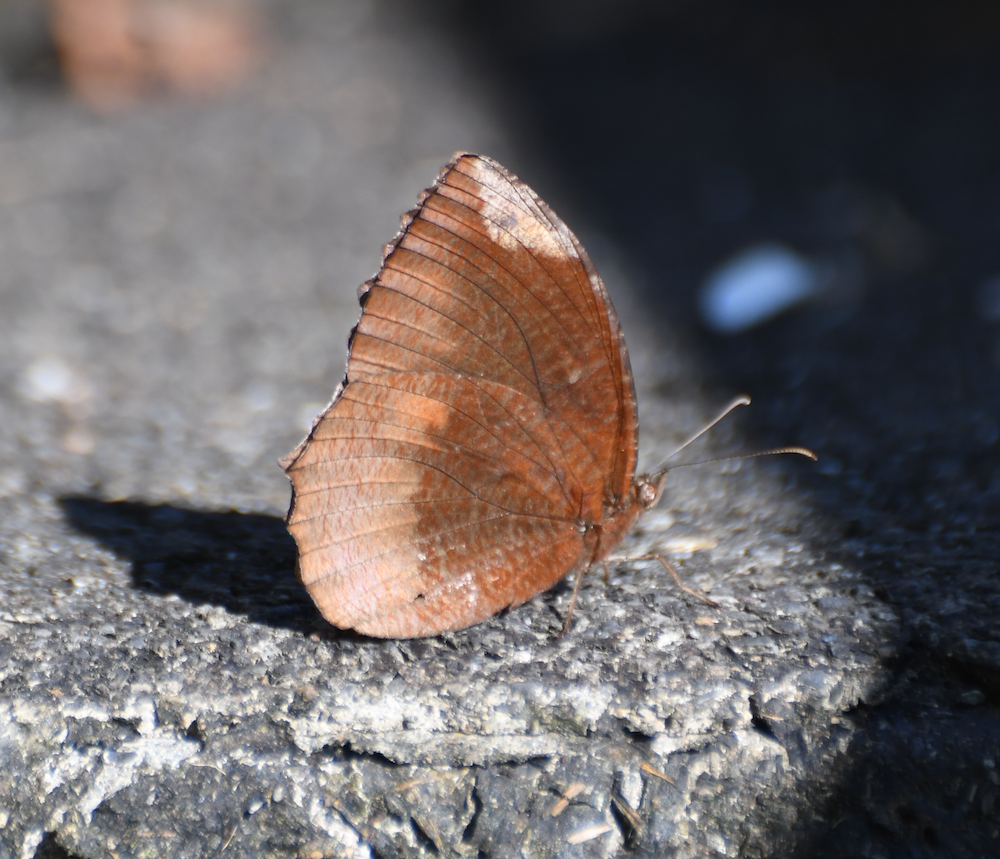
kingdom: Animalia
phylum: Arthropoda
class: Insecta
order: Lepidoptera
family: Nymphalidae
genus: Elymnias
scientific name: Elymnias hypermnestra
